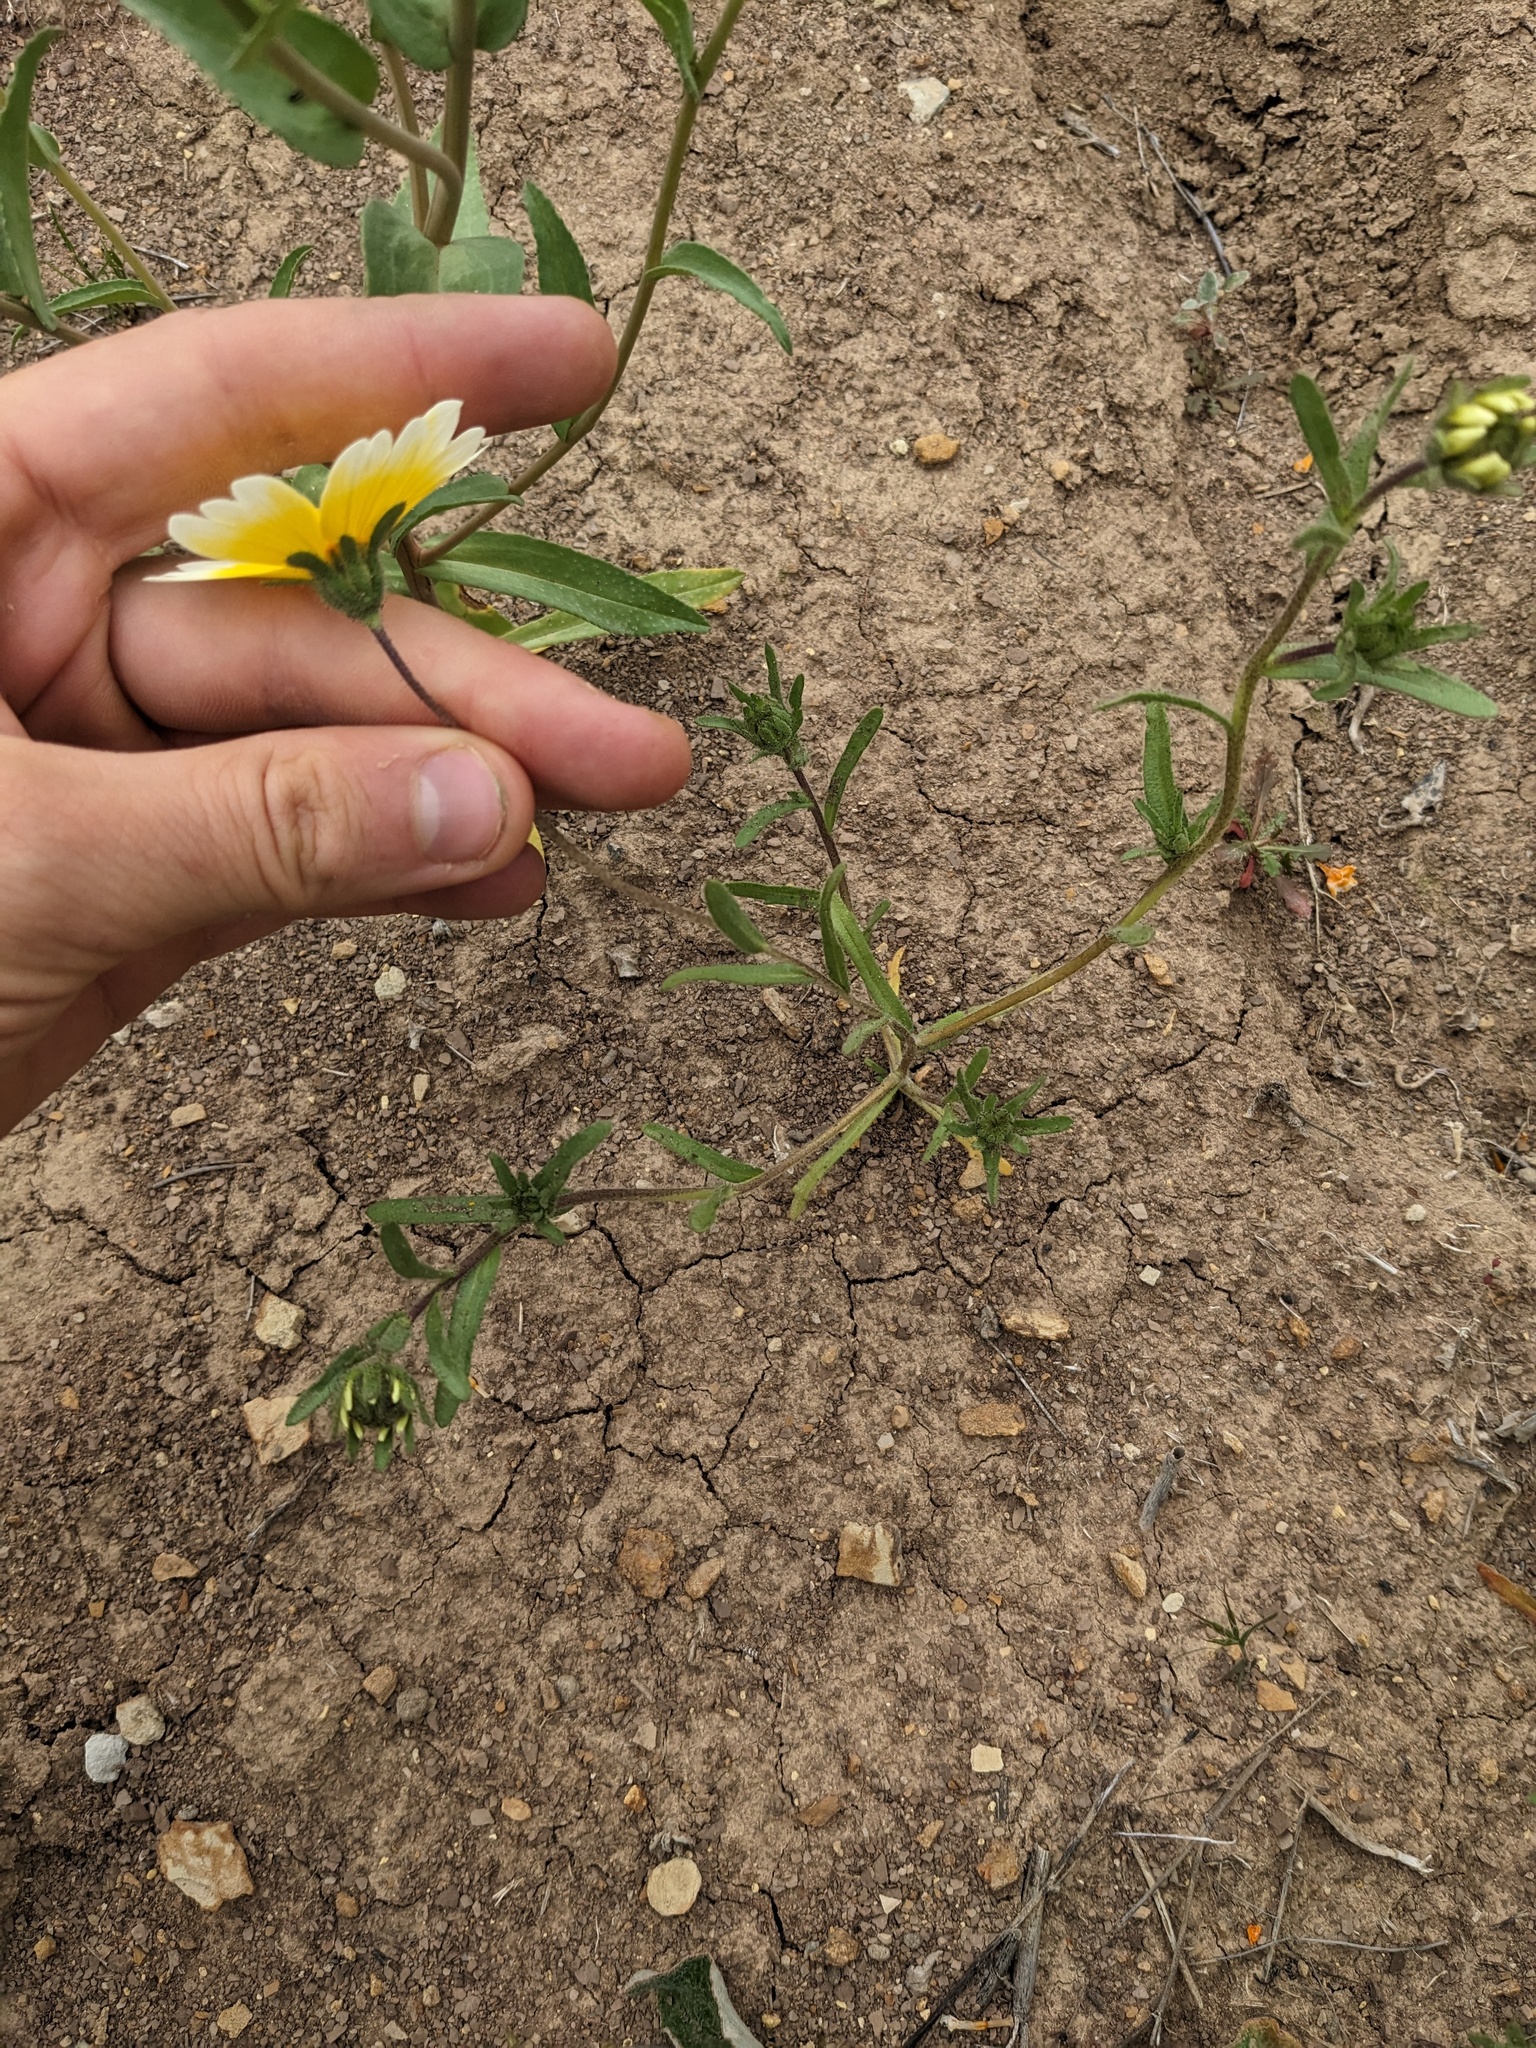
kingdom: Plantae
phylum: Tracheophyta
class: Magnoliopsida
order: Asterales
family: Asteraceae
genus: Layia
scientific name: Layia platyglossa
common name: Tidy-tips
